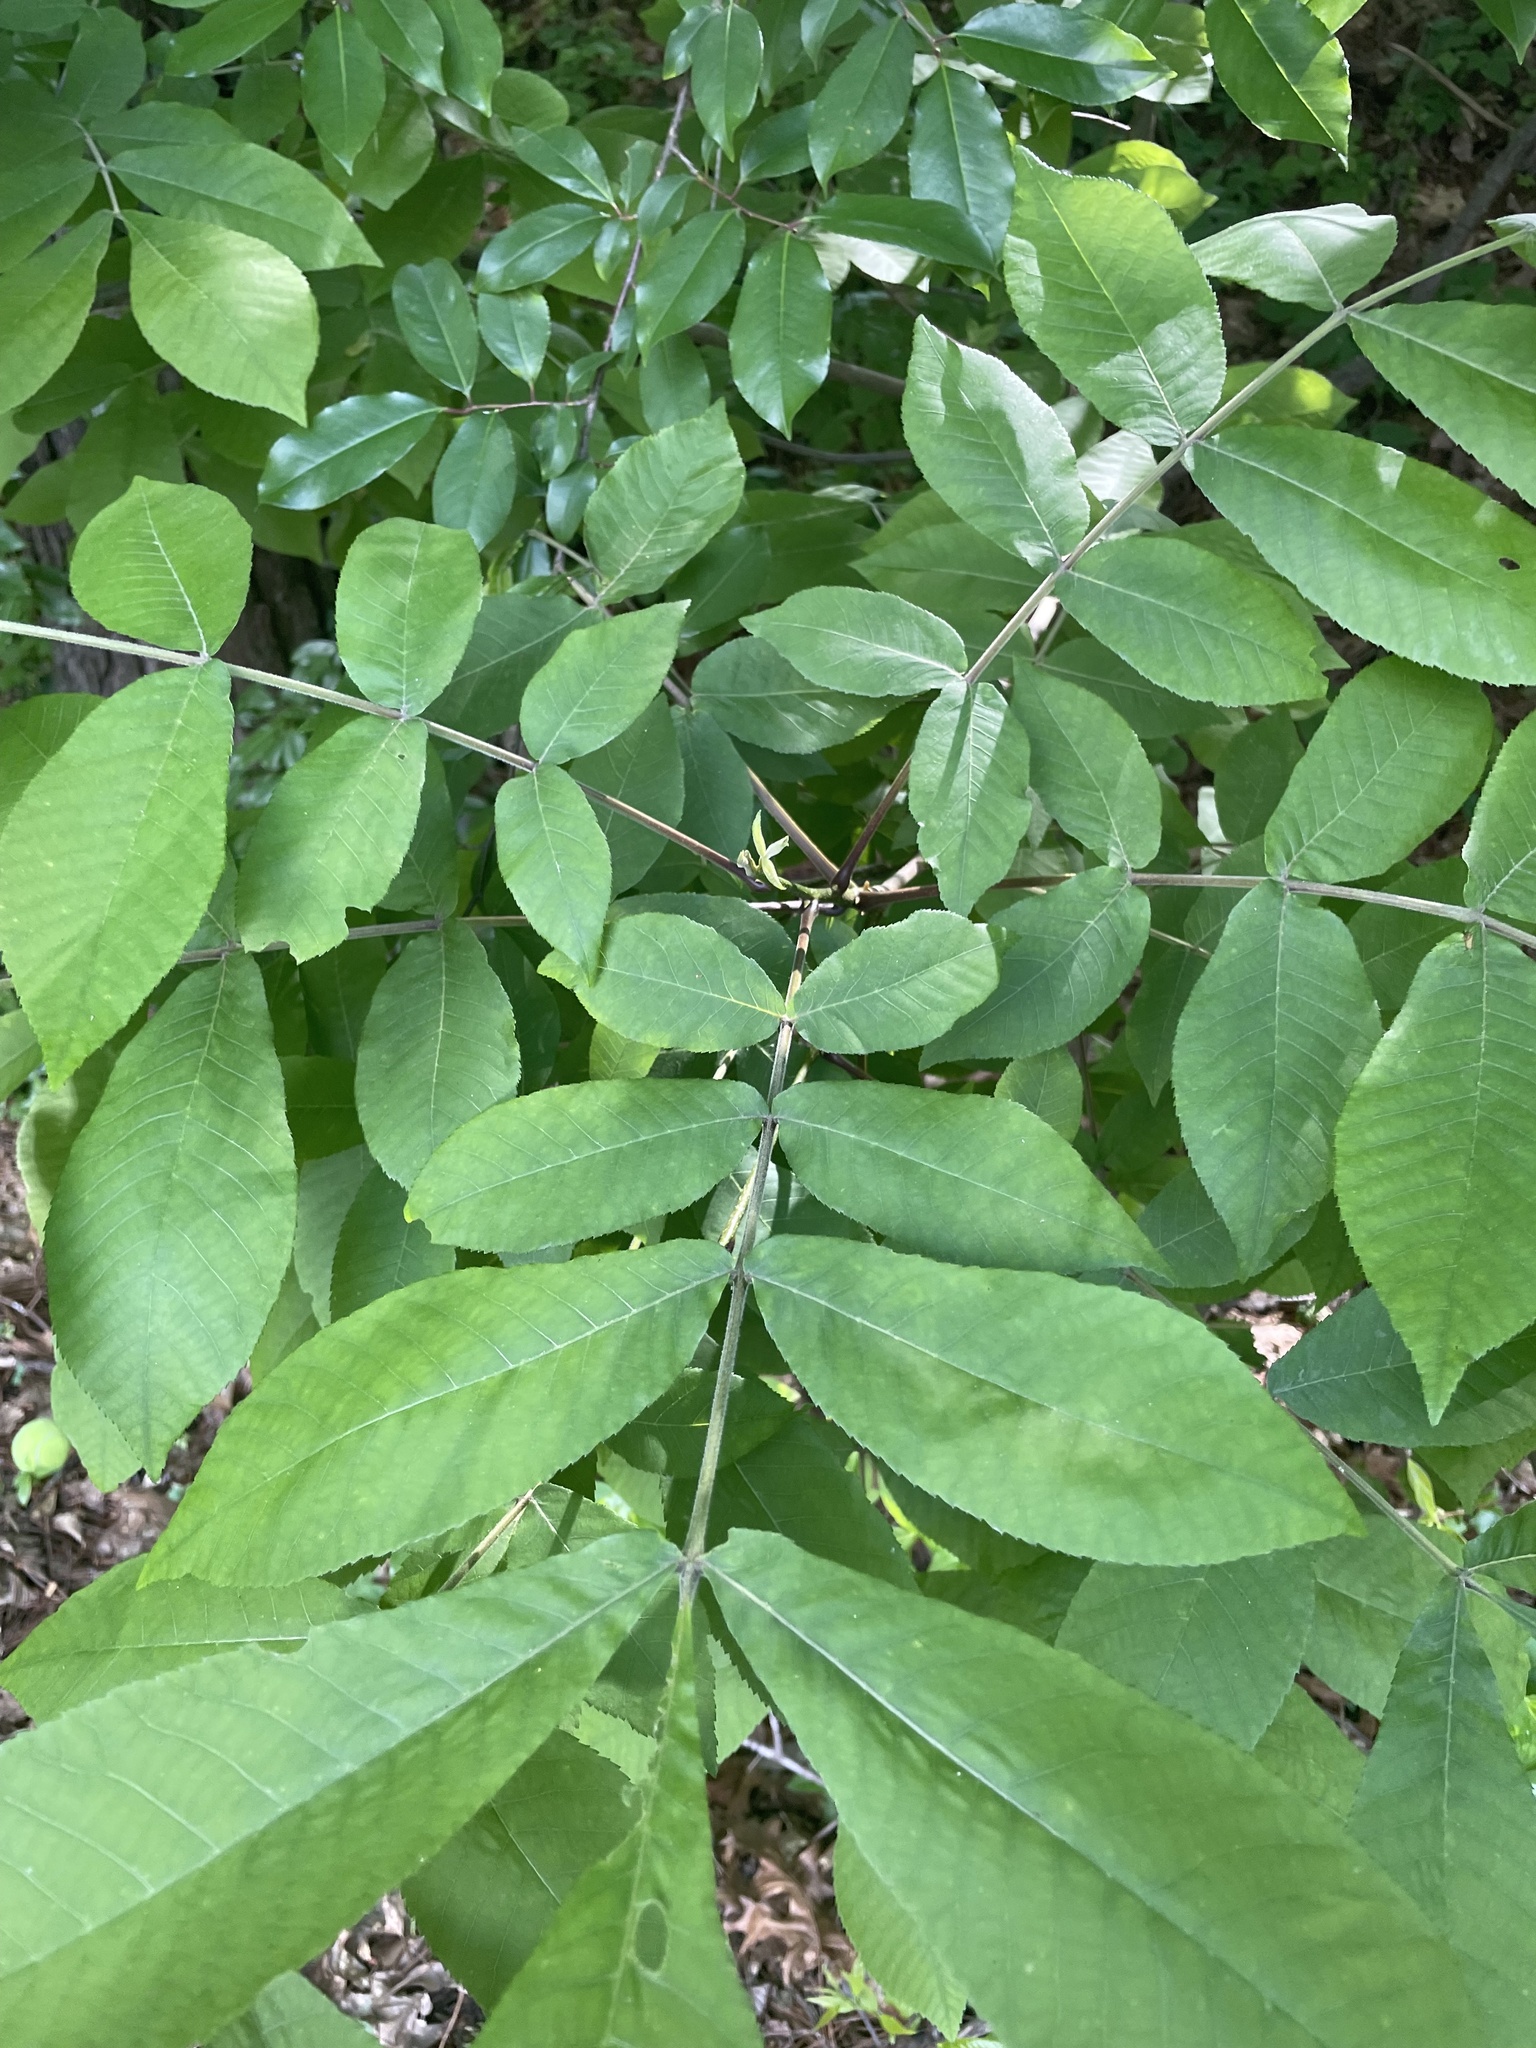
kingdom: Plantae
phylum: Tracheophyta
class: Magnoliopsida
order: Fagales
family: Juglandaceae
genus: Carya
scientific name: Carya cordiformis
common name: Bitternut hickory
